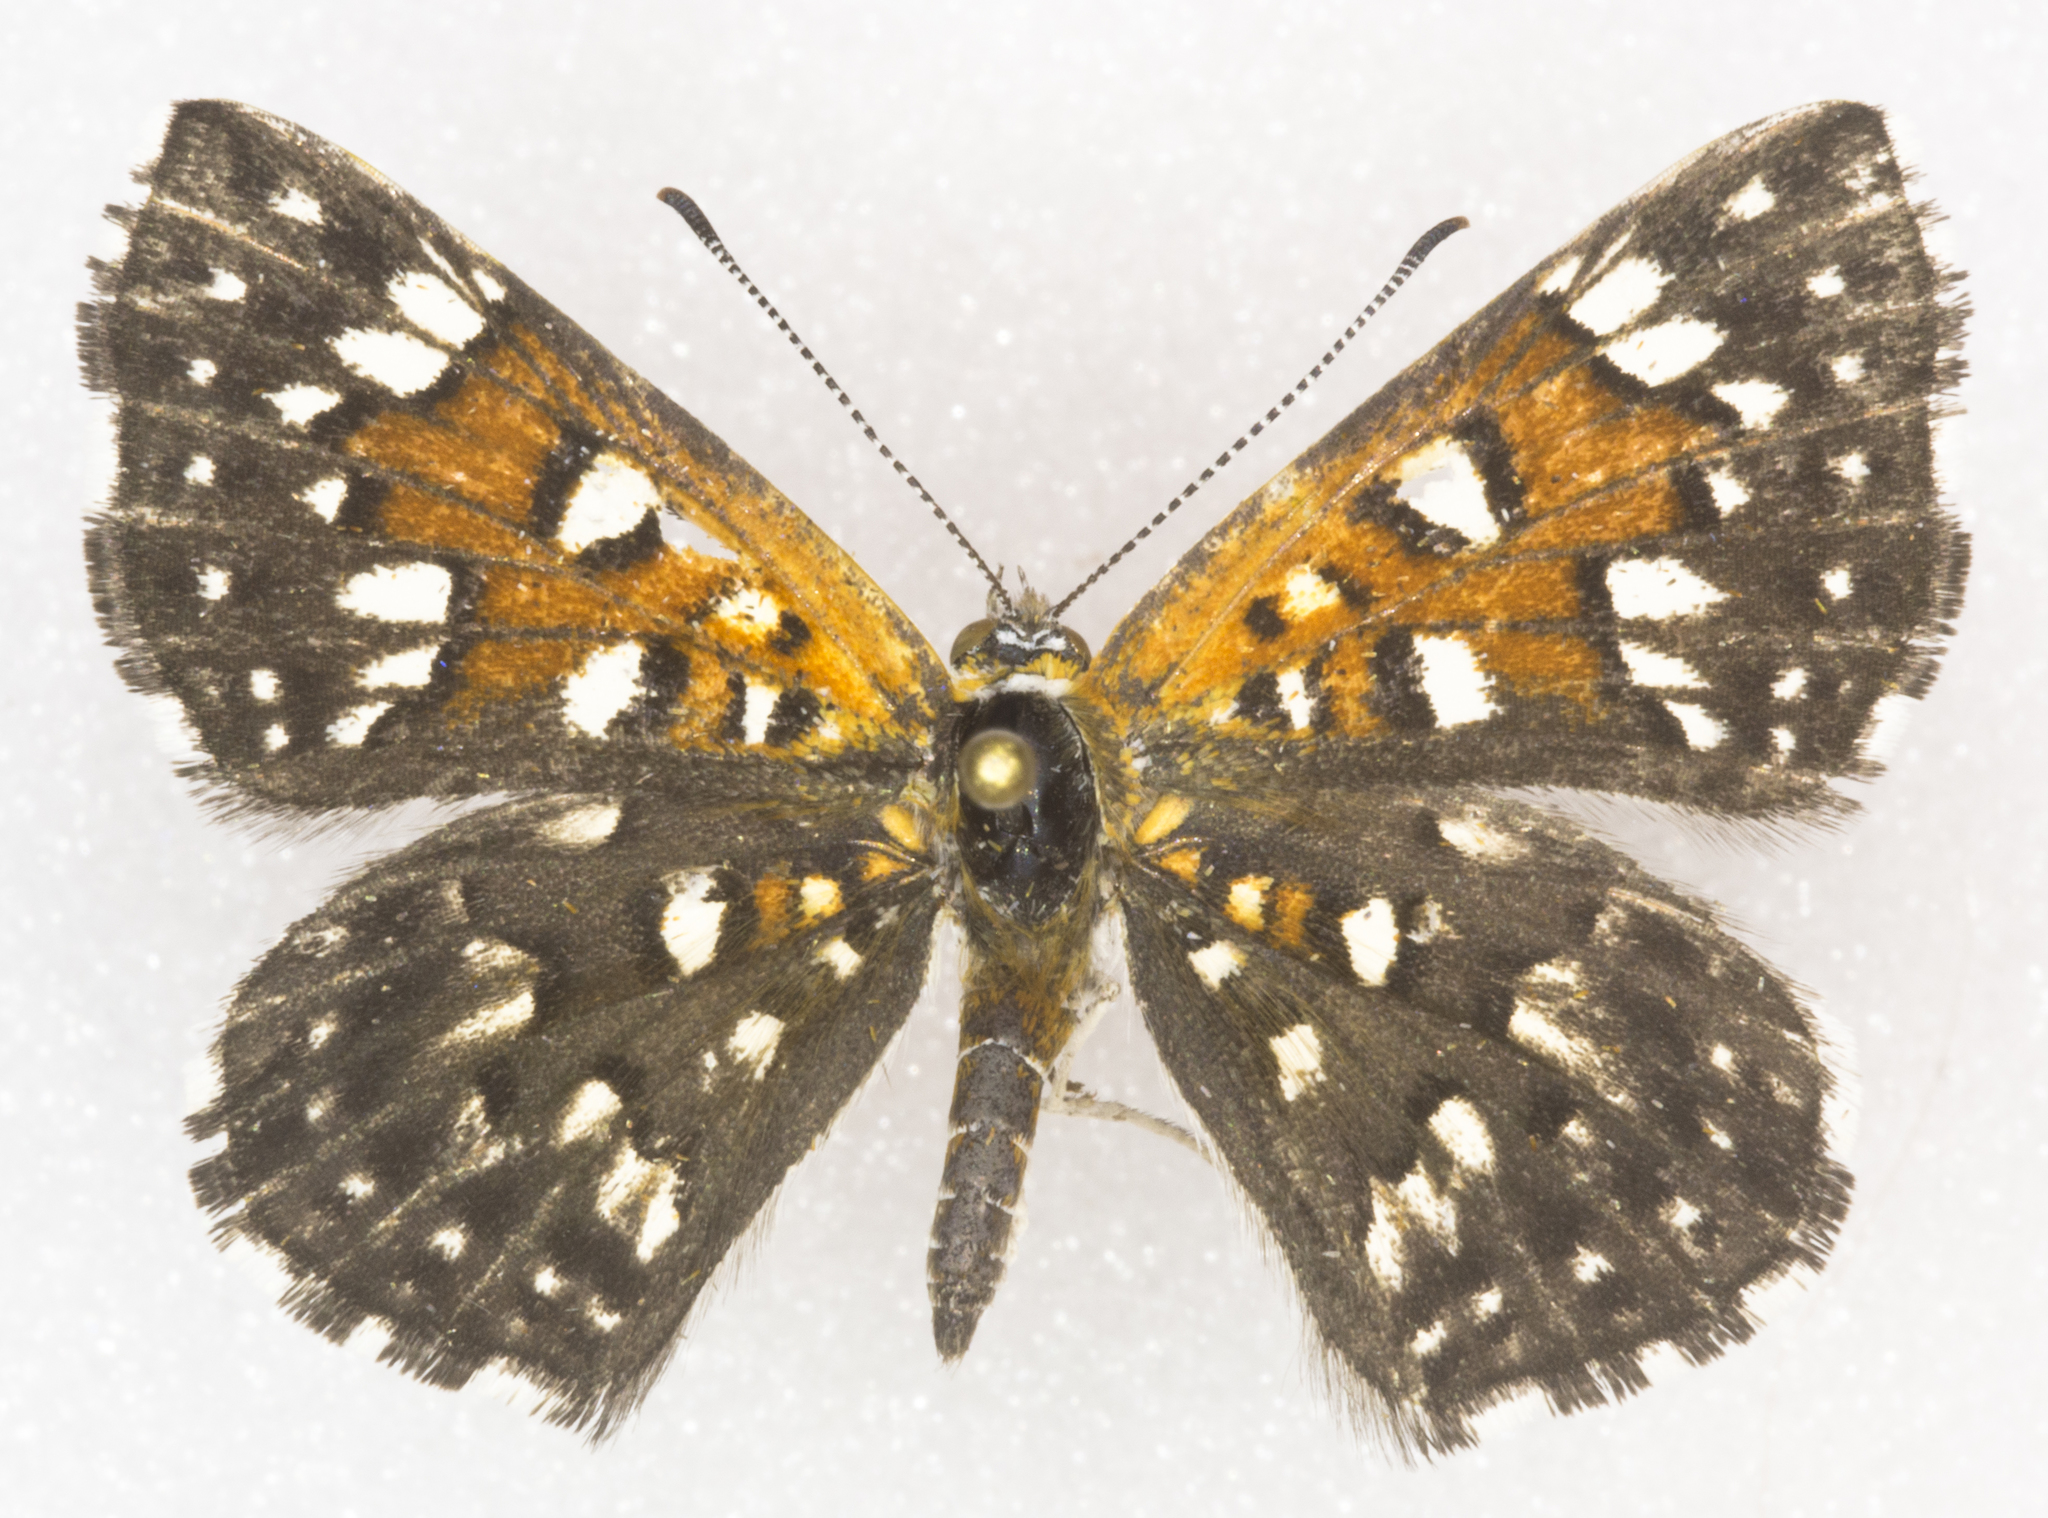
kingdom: Animalia
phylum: Arthropoda
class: Insecta
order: Lepidoptera
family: Riodinidae
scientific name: Riodinidae
